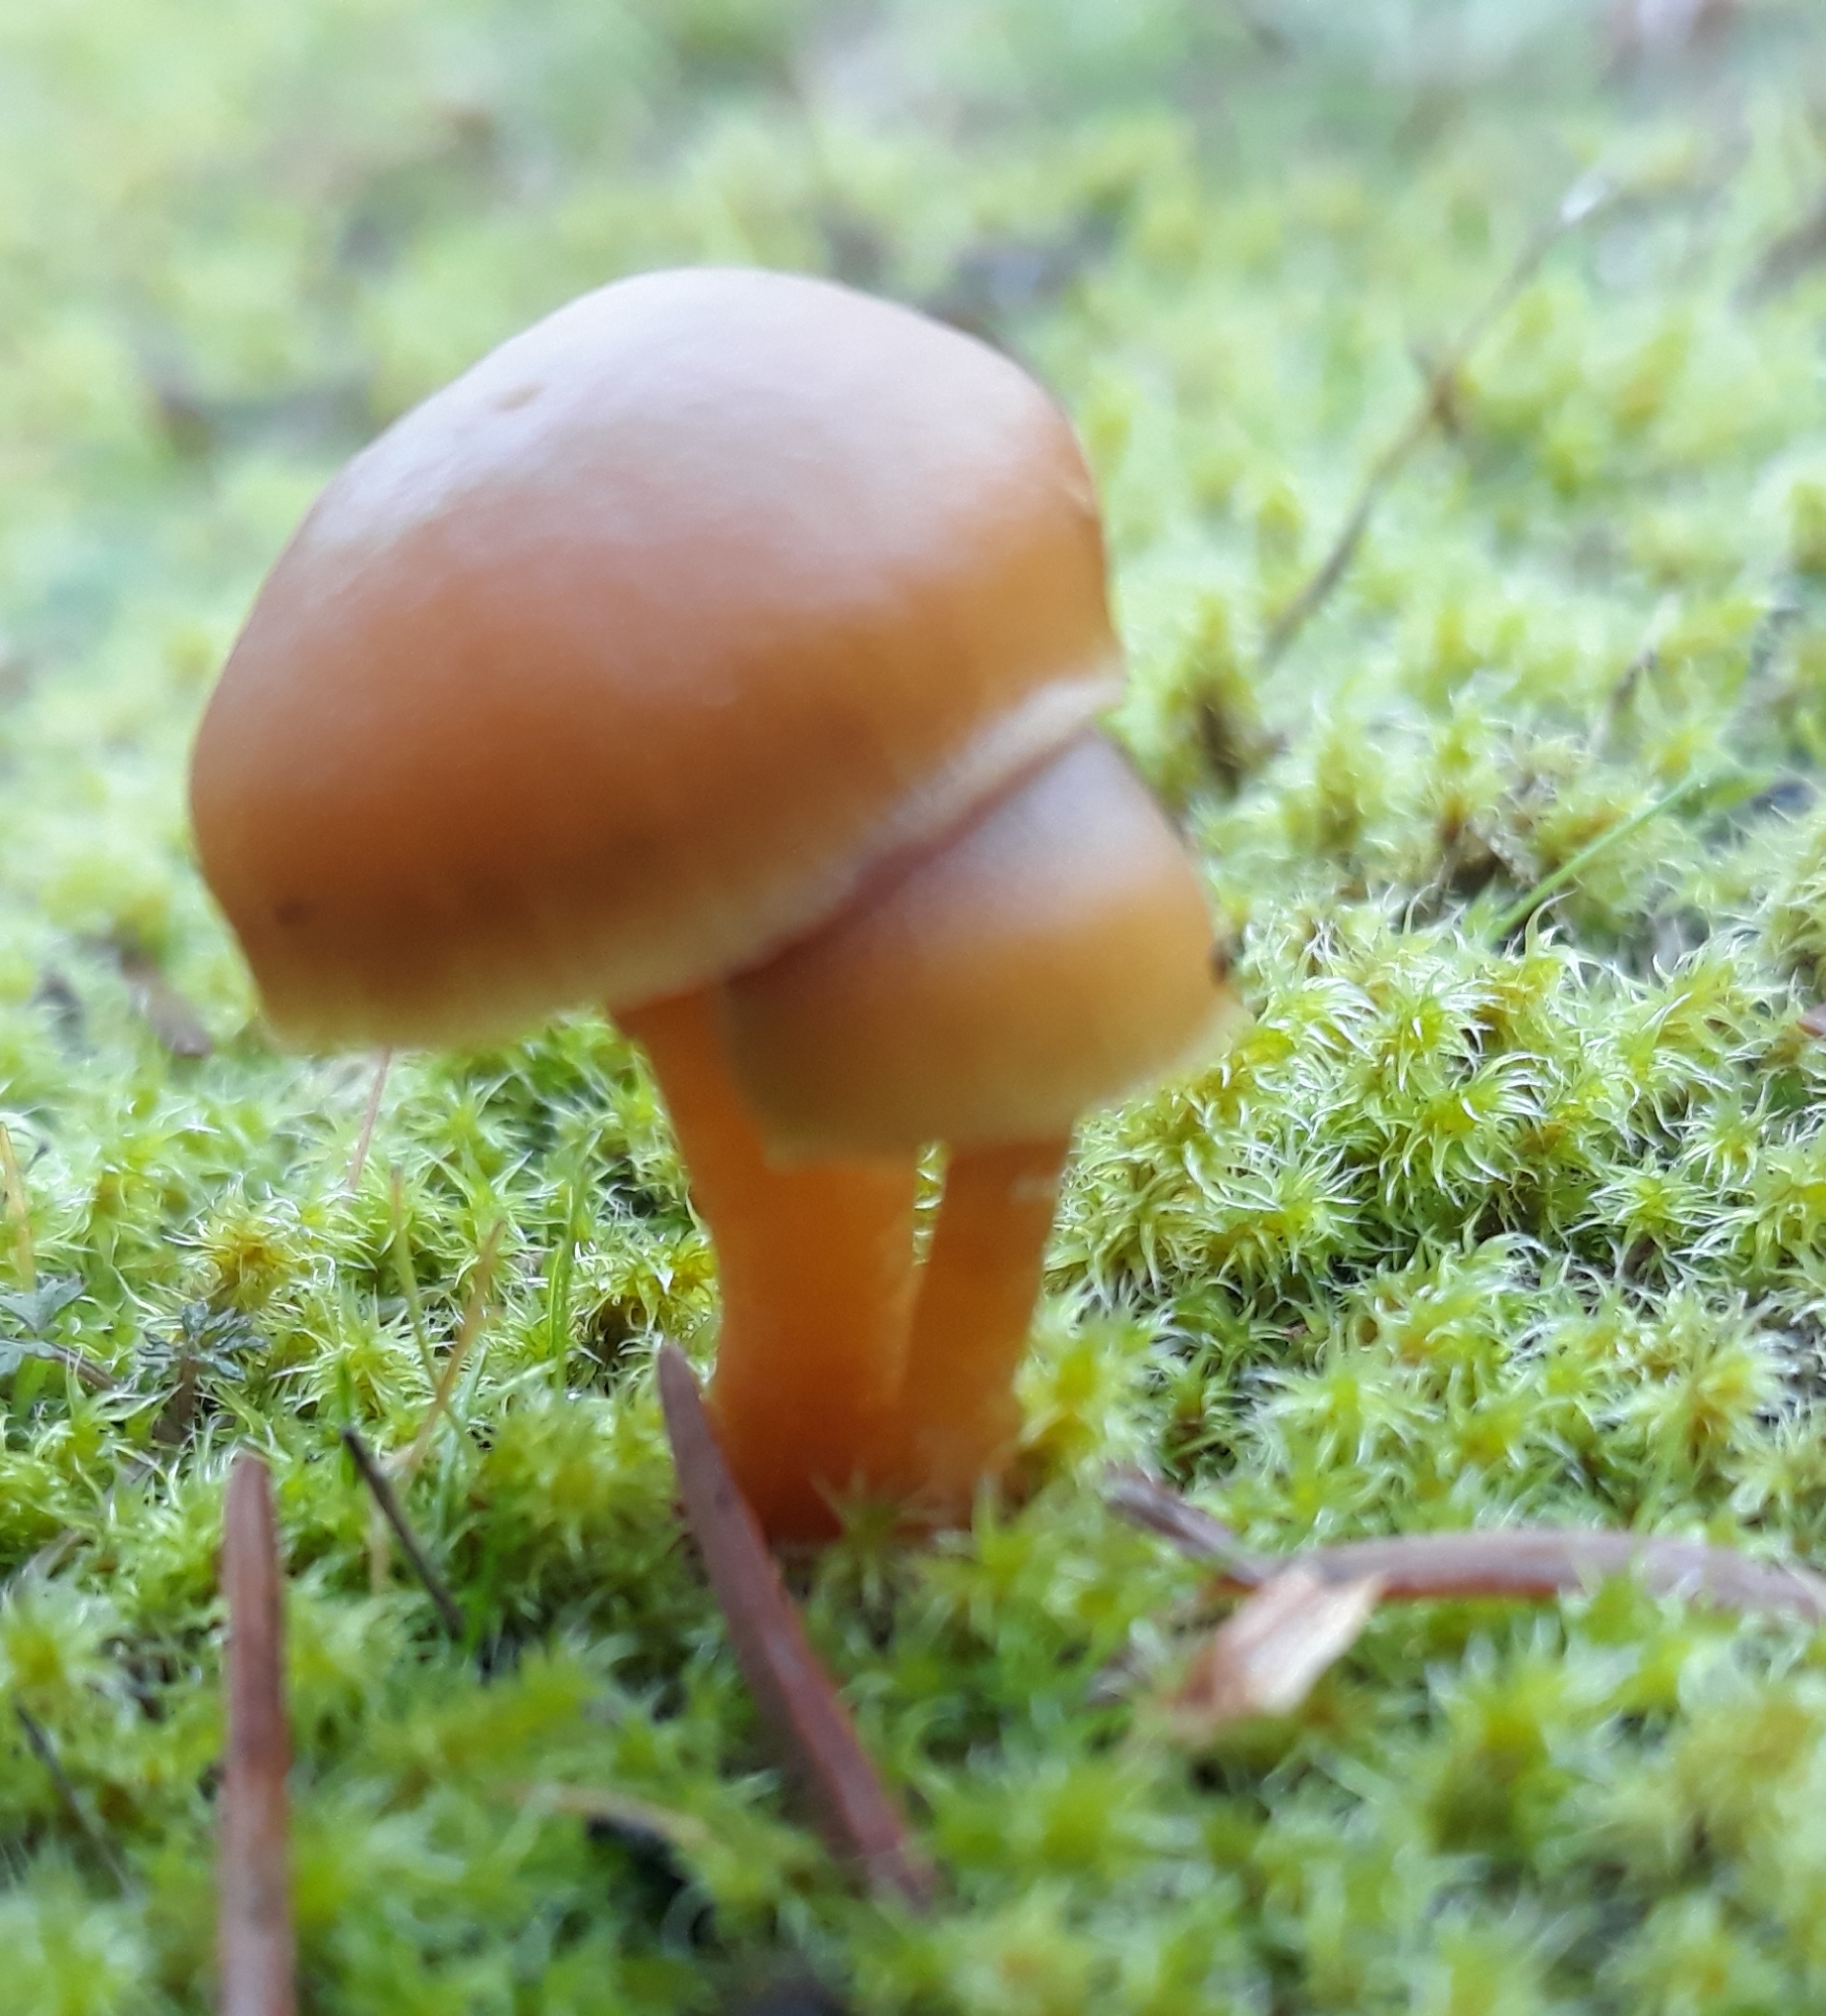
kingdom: Fungi
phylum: Basidiomycota
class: Agaricomycetes
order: Agaricales
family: Hymenogastraceae
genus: Galerina
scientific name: Galerina marginata
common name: Funeral bell
